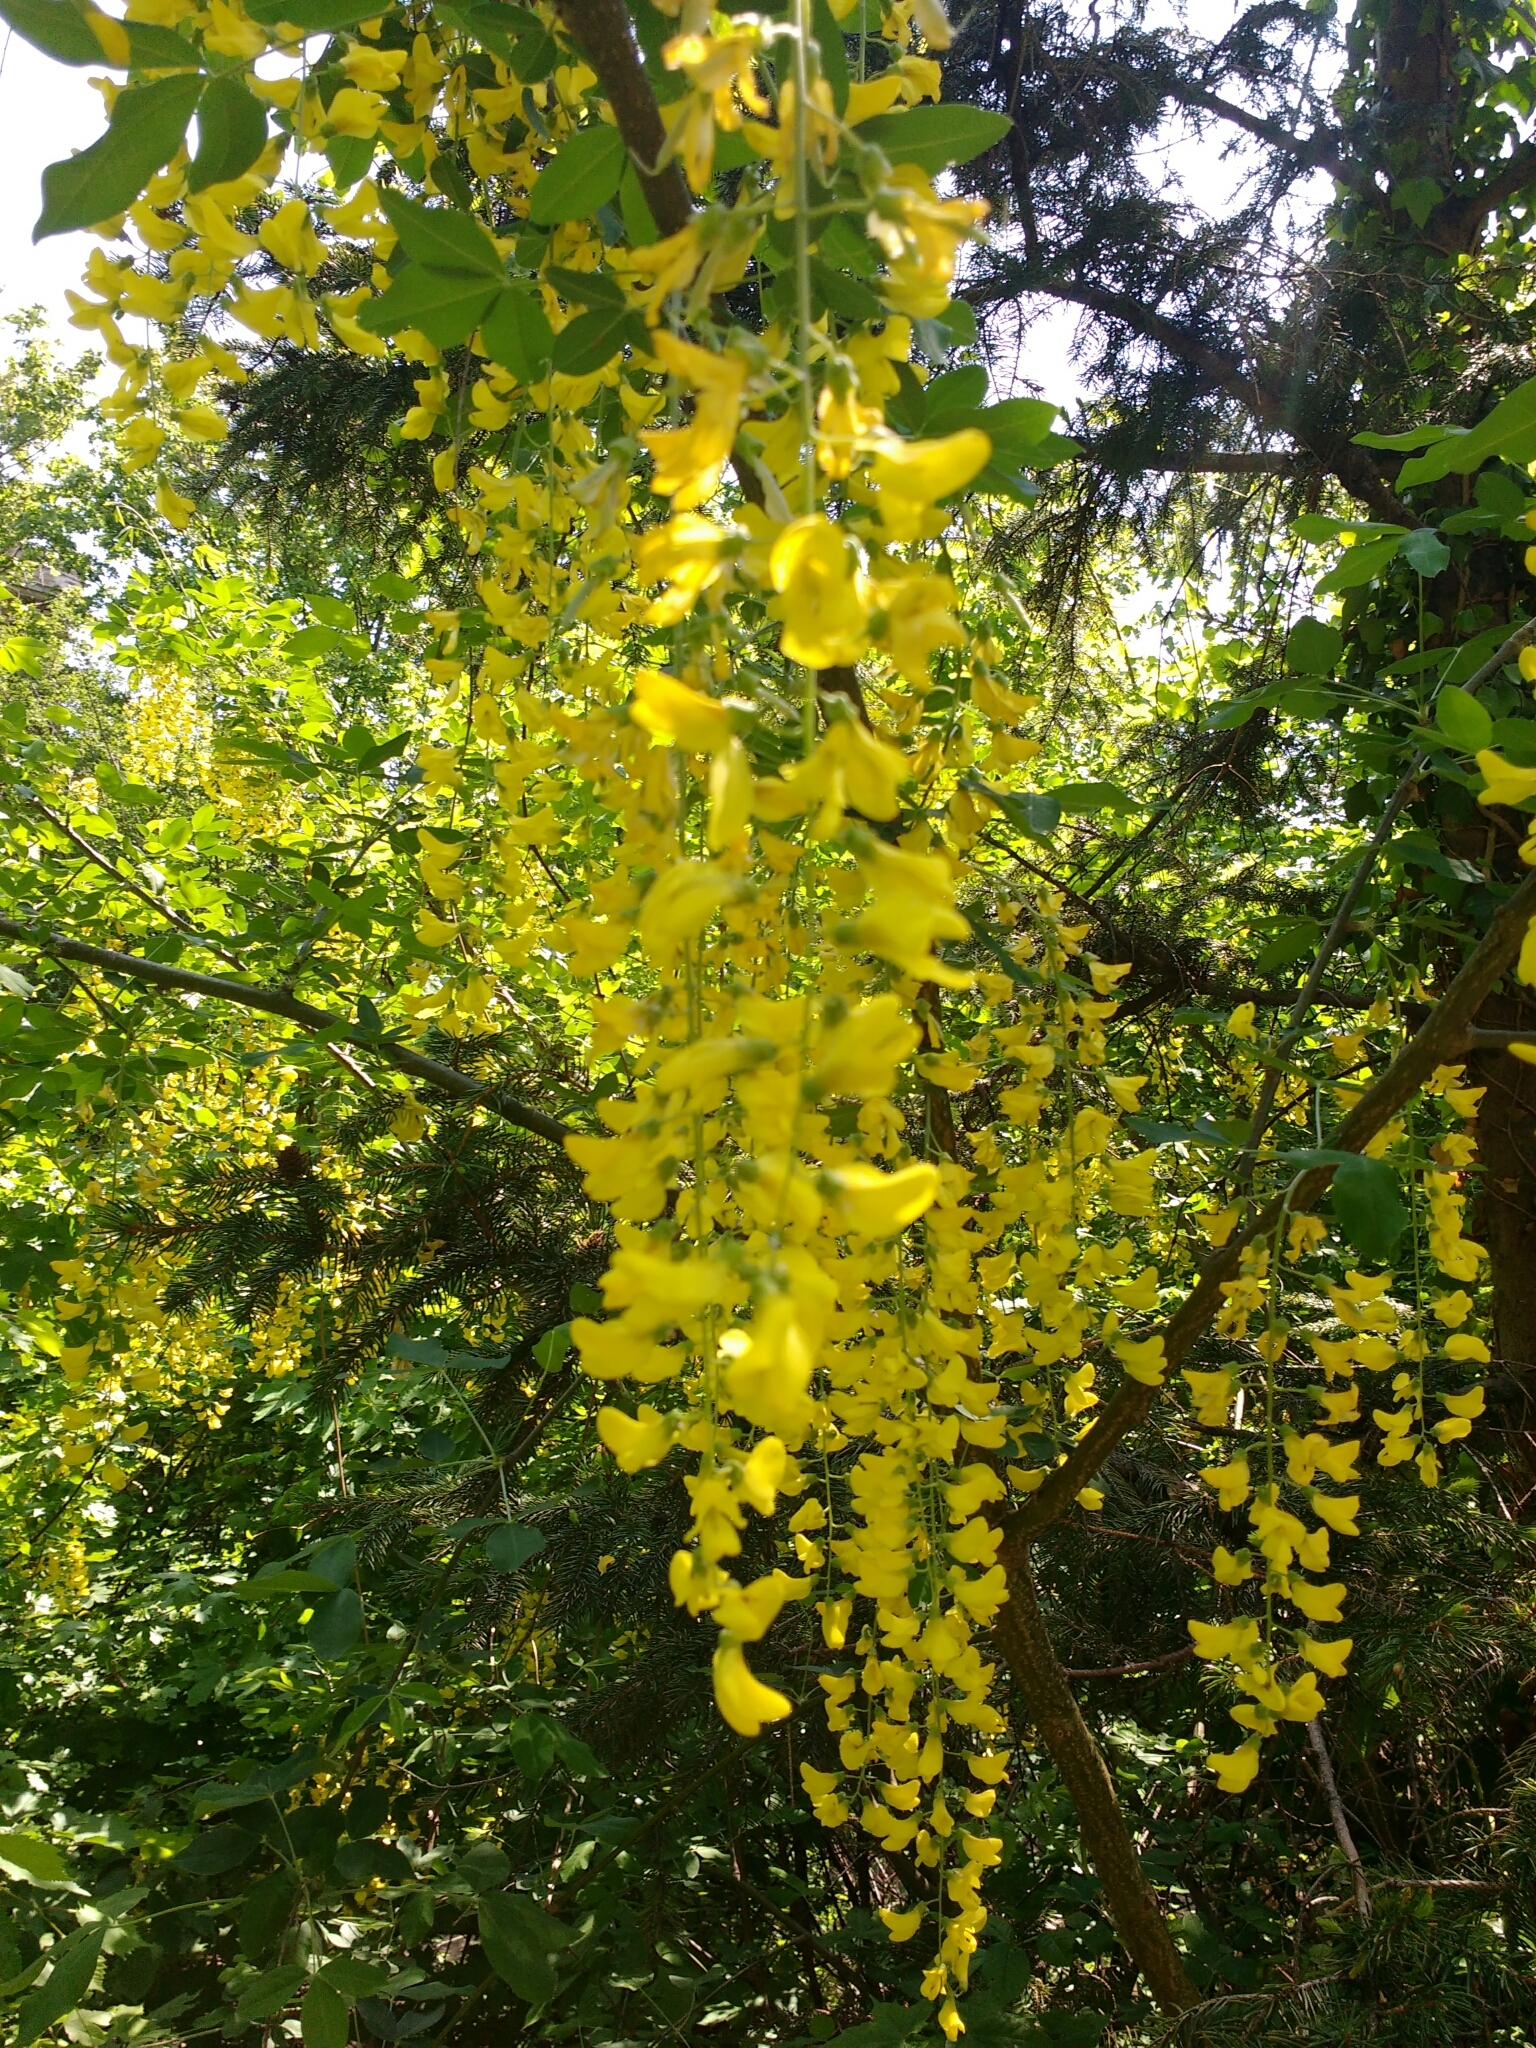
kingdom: Plantae
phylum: Tracheophyta
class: Magnoliopsida
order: Fabales
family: Fabaceae
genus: Laburnum
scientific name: Laburnum anagyroides
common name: Laburnum
